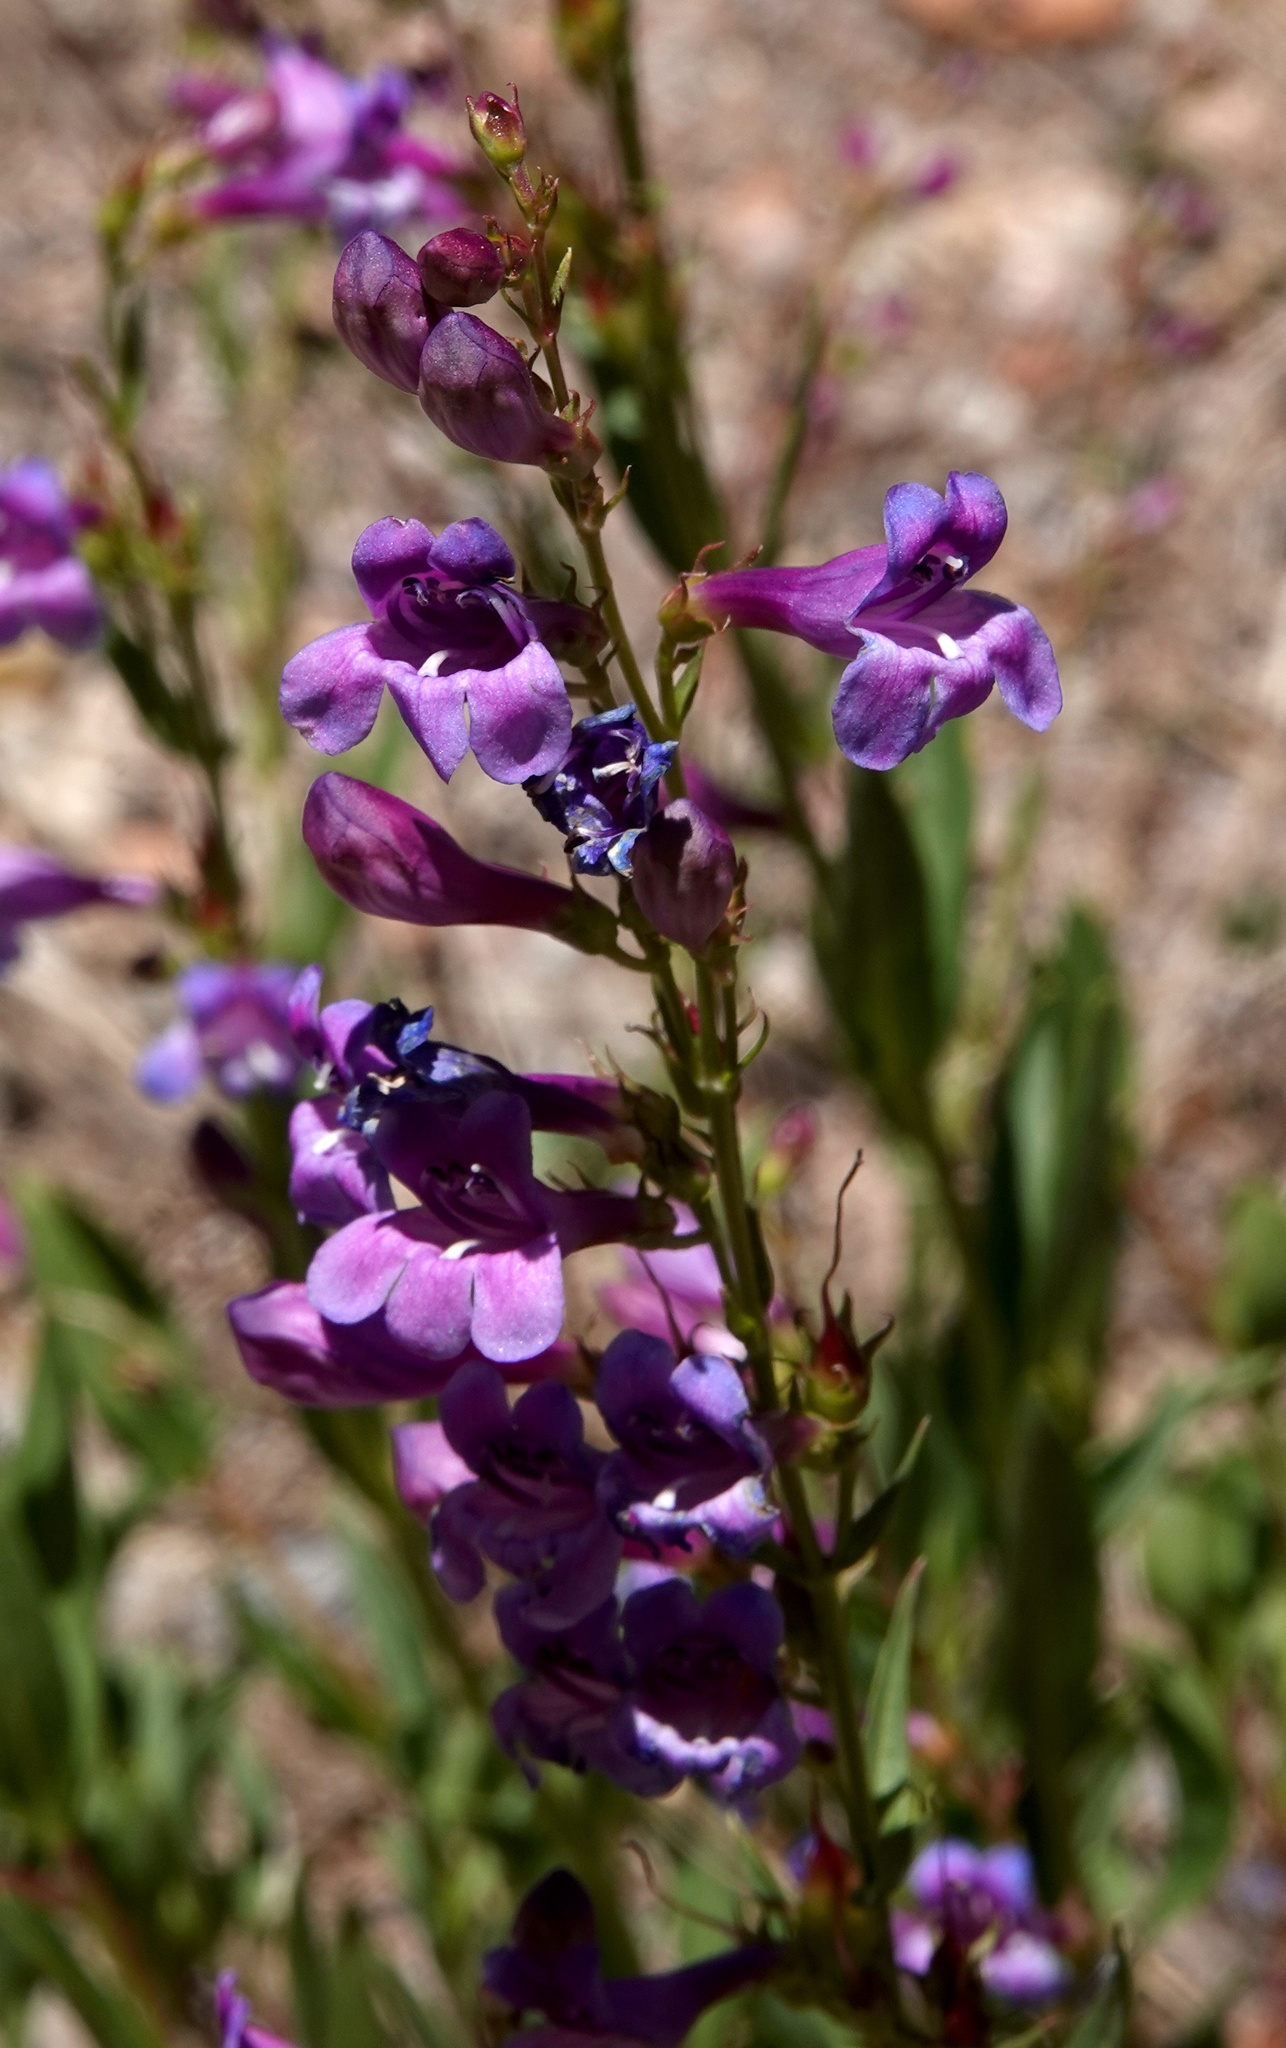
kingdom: Plantae
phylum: Tracheophyta
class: Magnoliopsida
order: Lamiales
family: Plantaginaceae
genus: Penstemon
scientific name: Penstemon leonardii
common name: Leonard's penstemon
